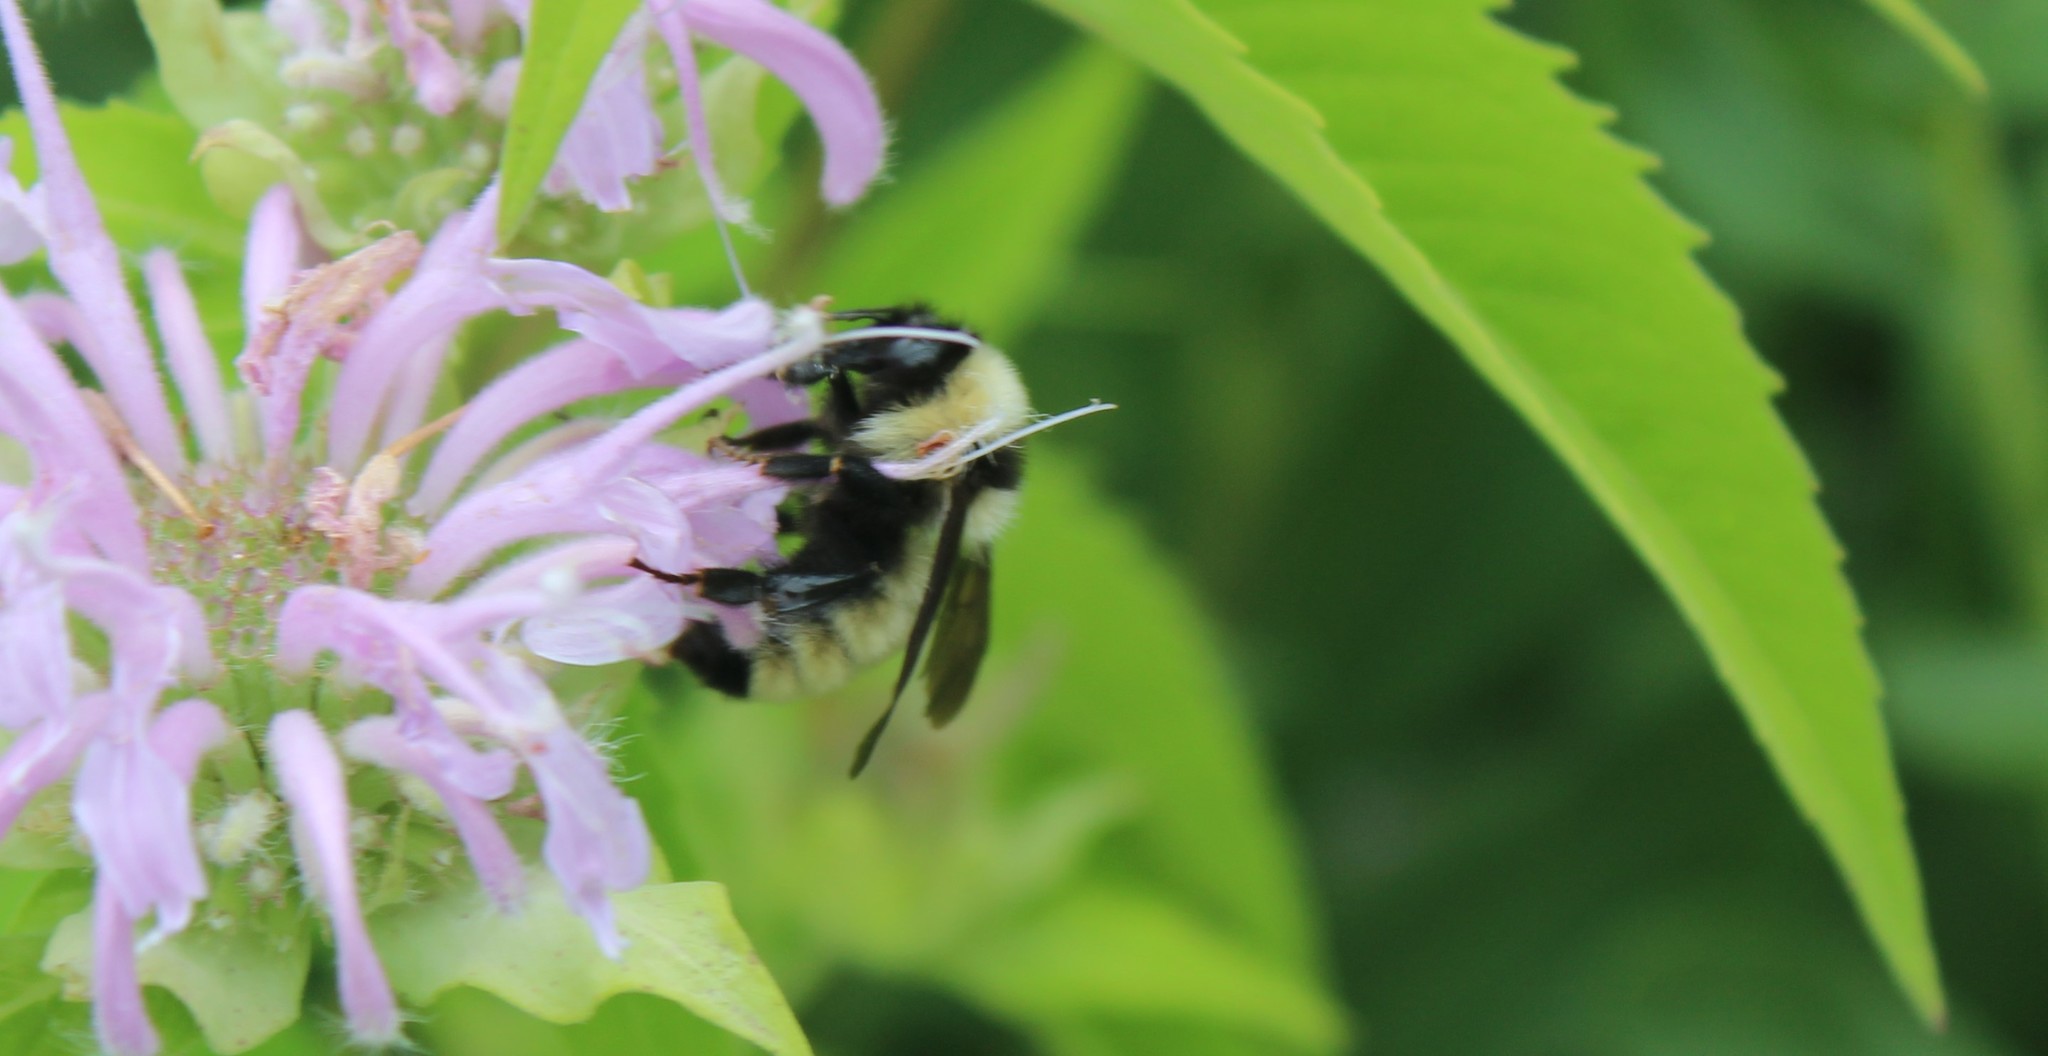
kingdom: Animalia
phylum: Arthropoda
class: Insecta
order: Hymenoptera
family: Apidae
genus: Bombus
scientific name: Bombus fervidus
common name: Yellow bumble bee
